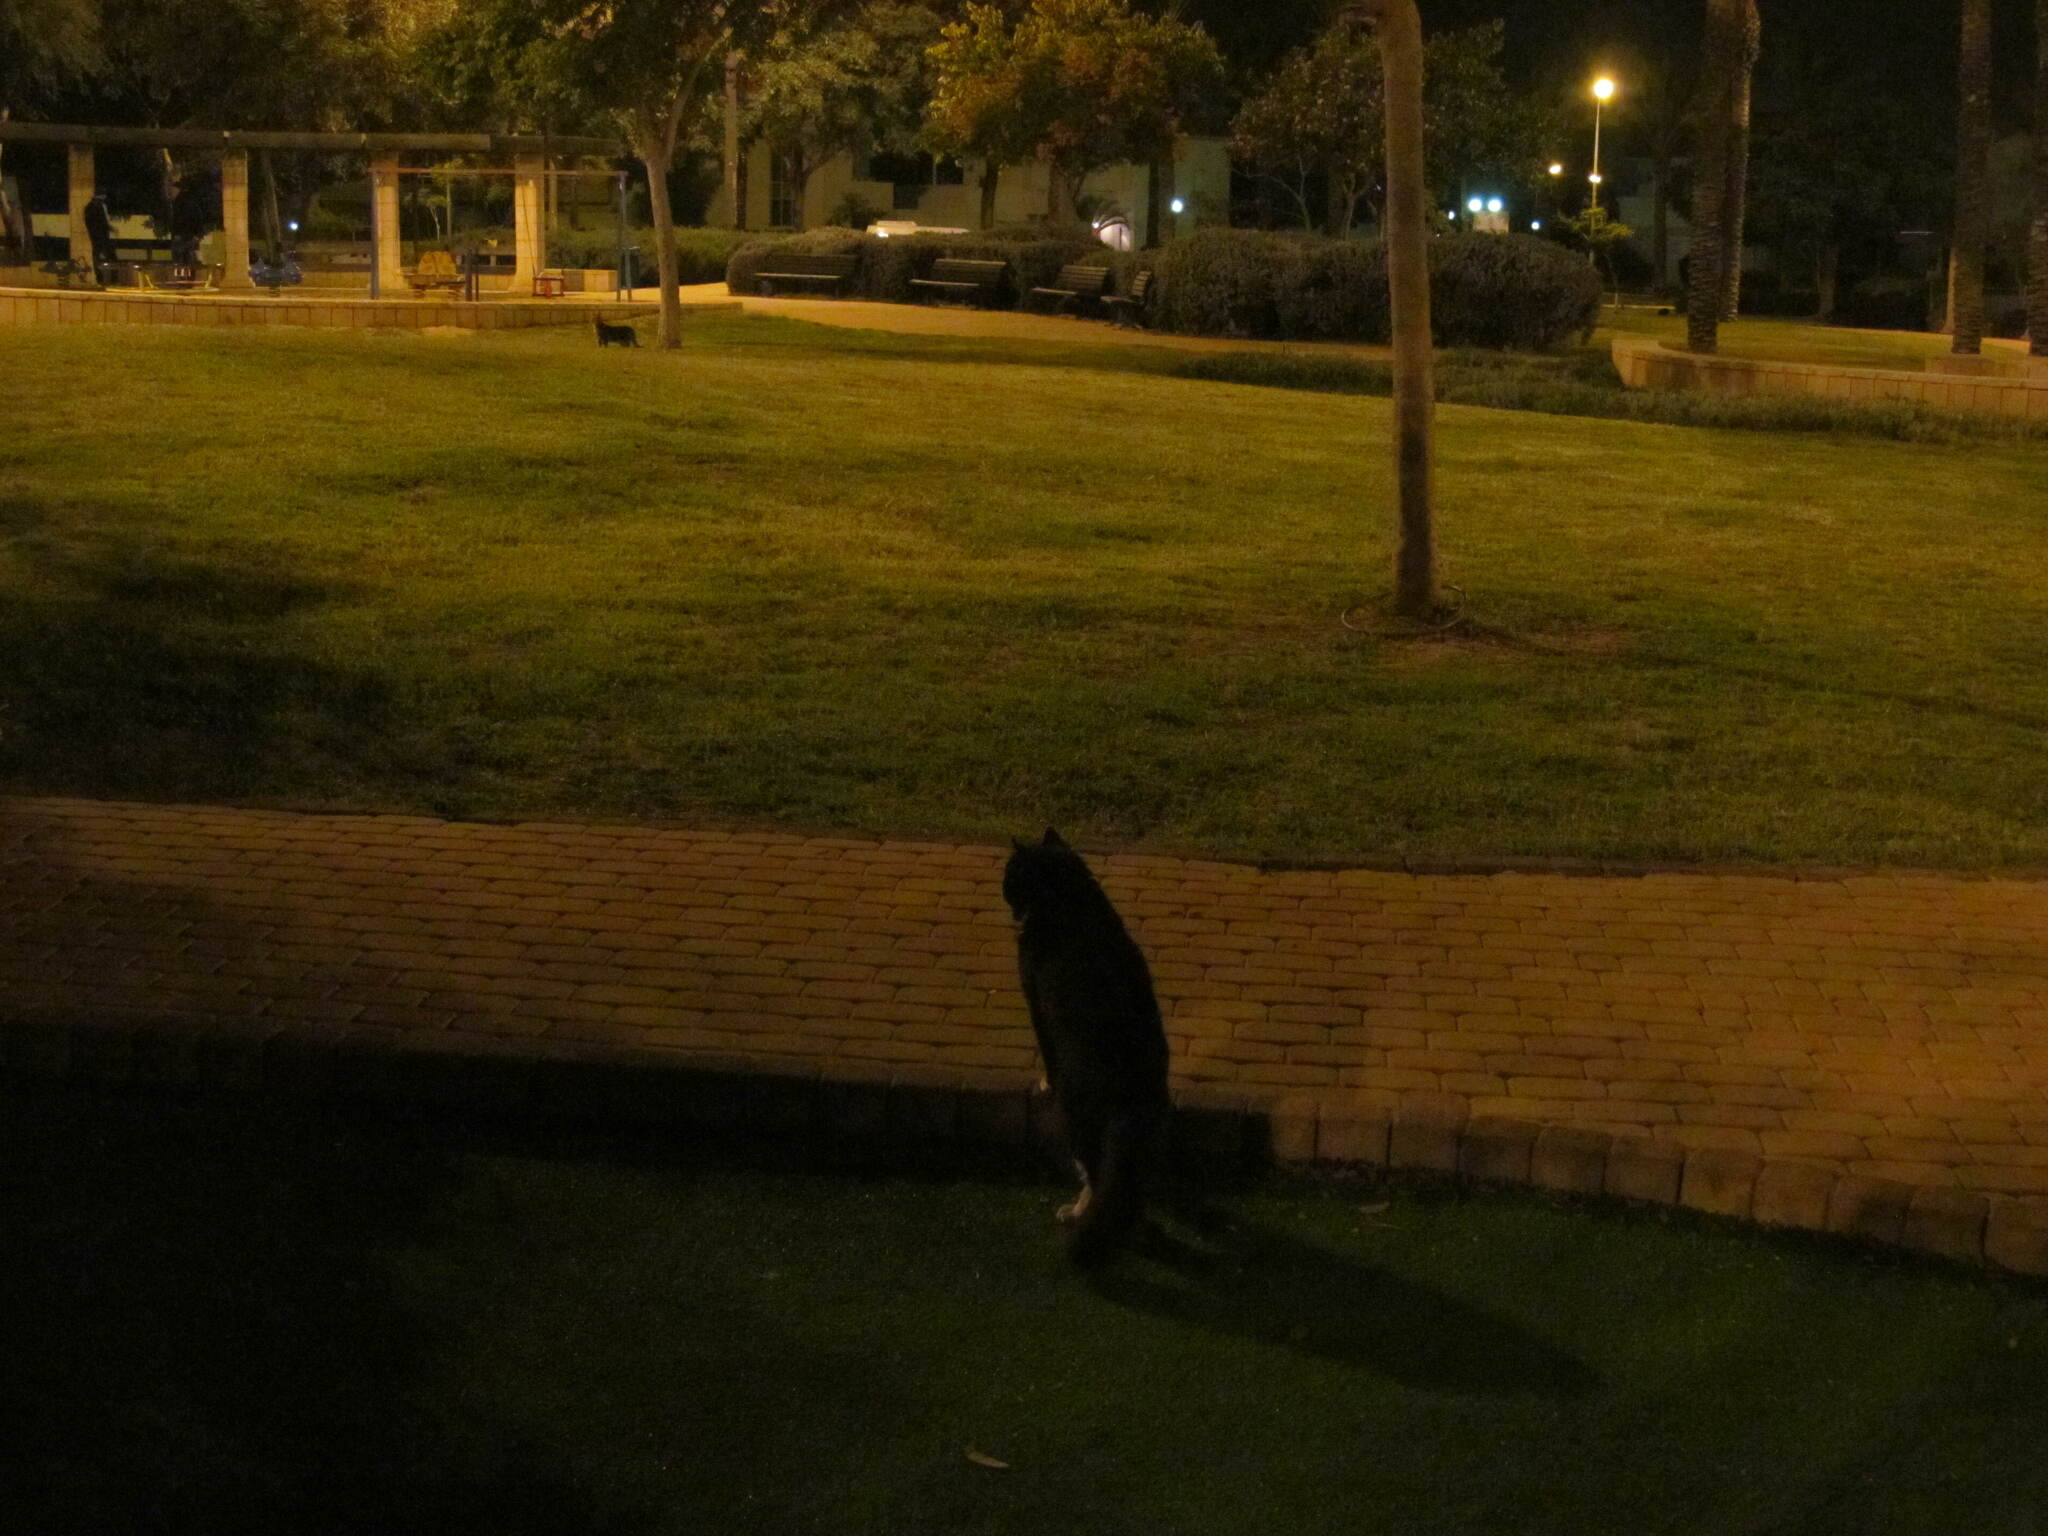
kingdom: Animalia
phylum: Chordata
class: Mammalia
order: Carnivora
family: Felidae
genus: Felis
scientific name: Felis catus
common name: Domestic cat
